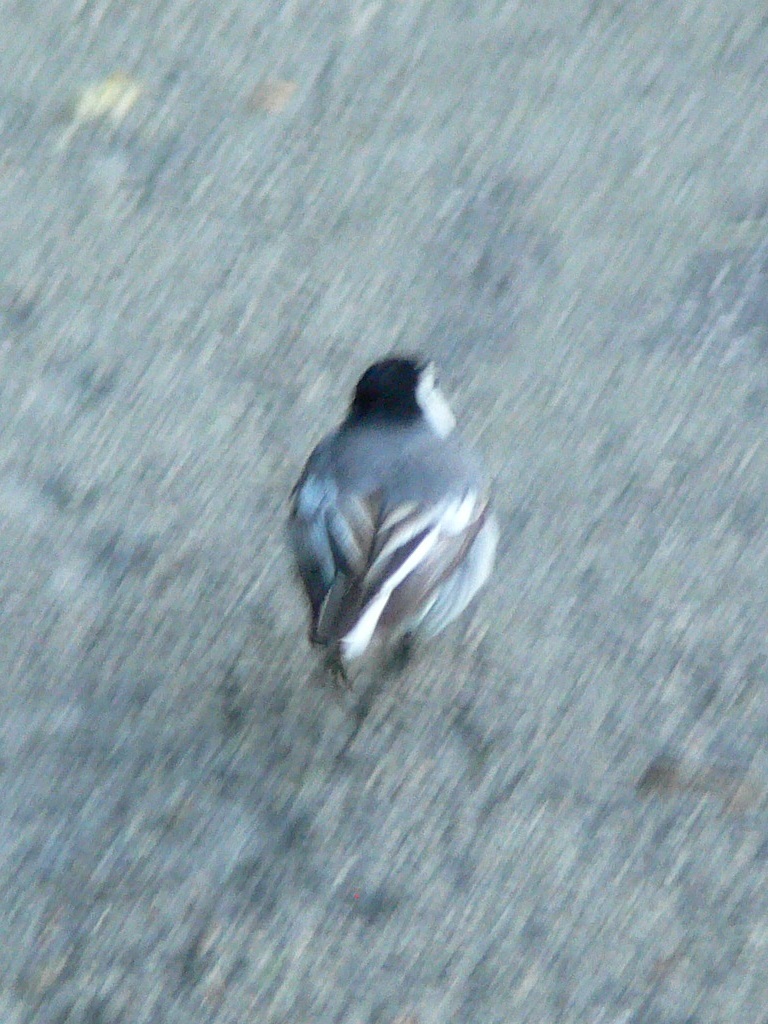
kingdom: Animalia
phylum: Chordata
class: Aves
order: Passeriformes
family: Motacillidae
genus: Motacilla
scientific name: Motacilla alba
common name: White wagtail
